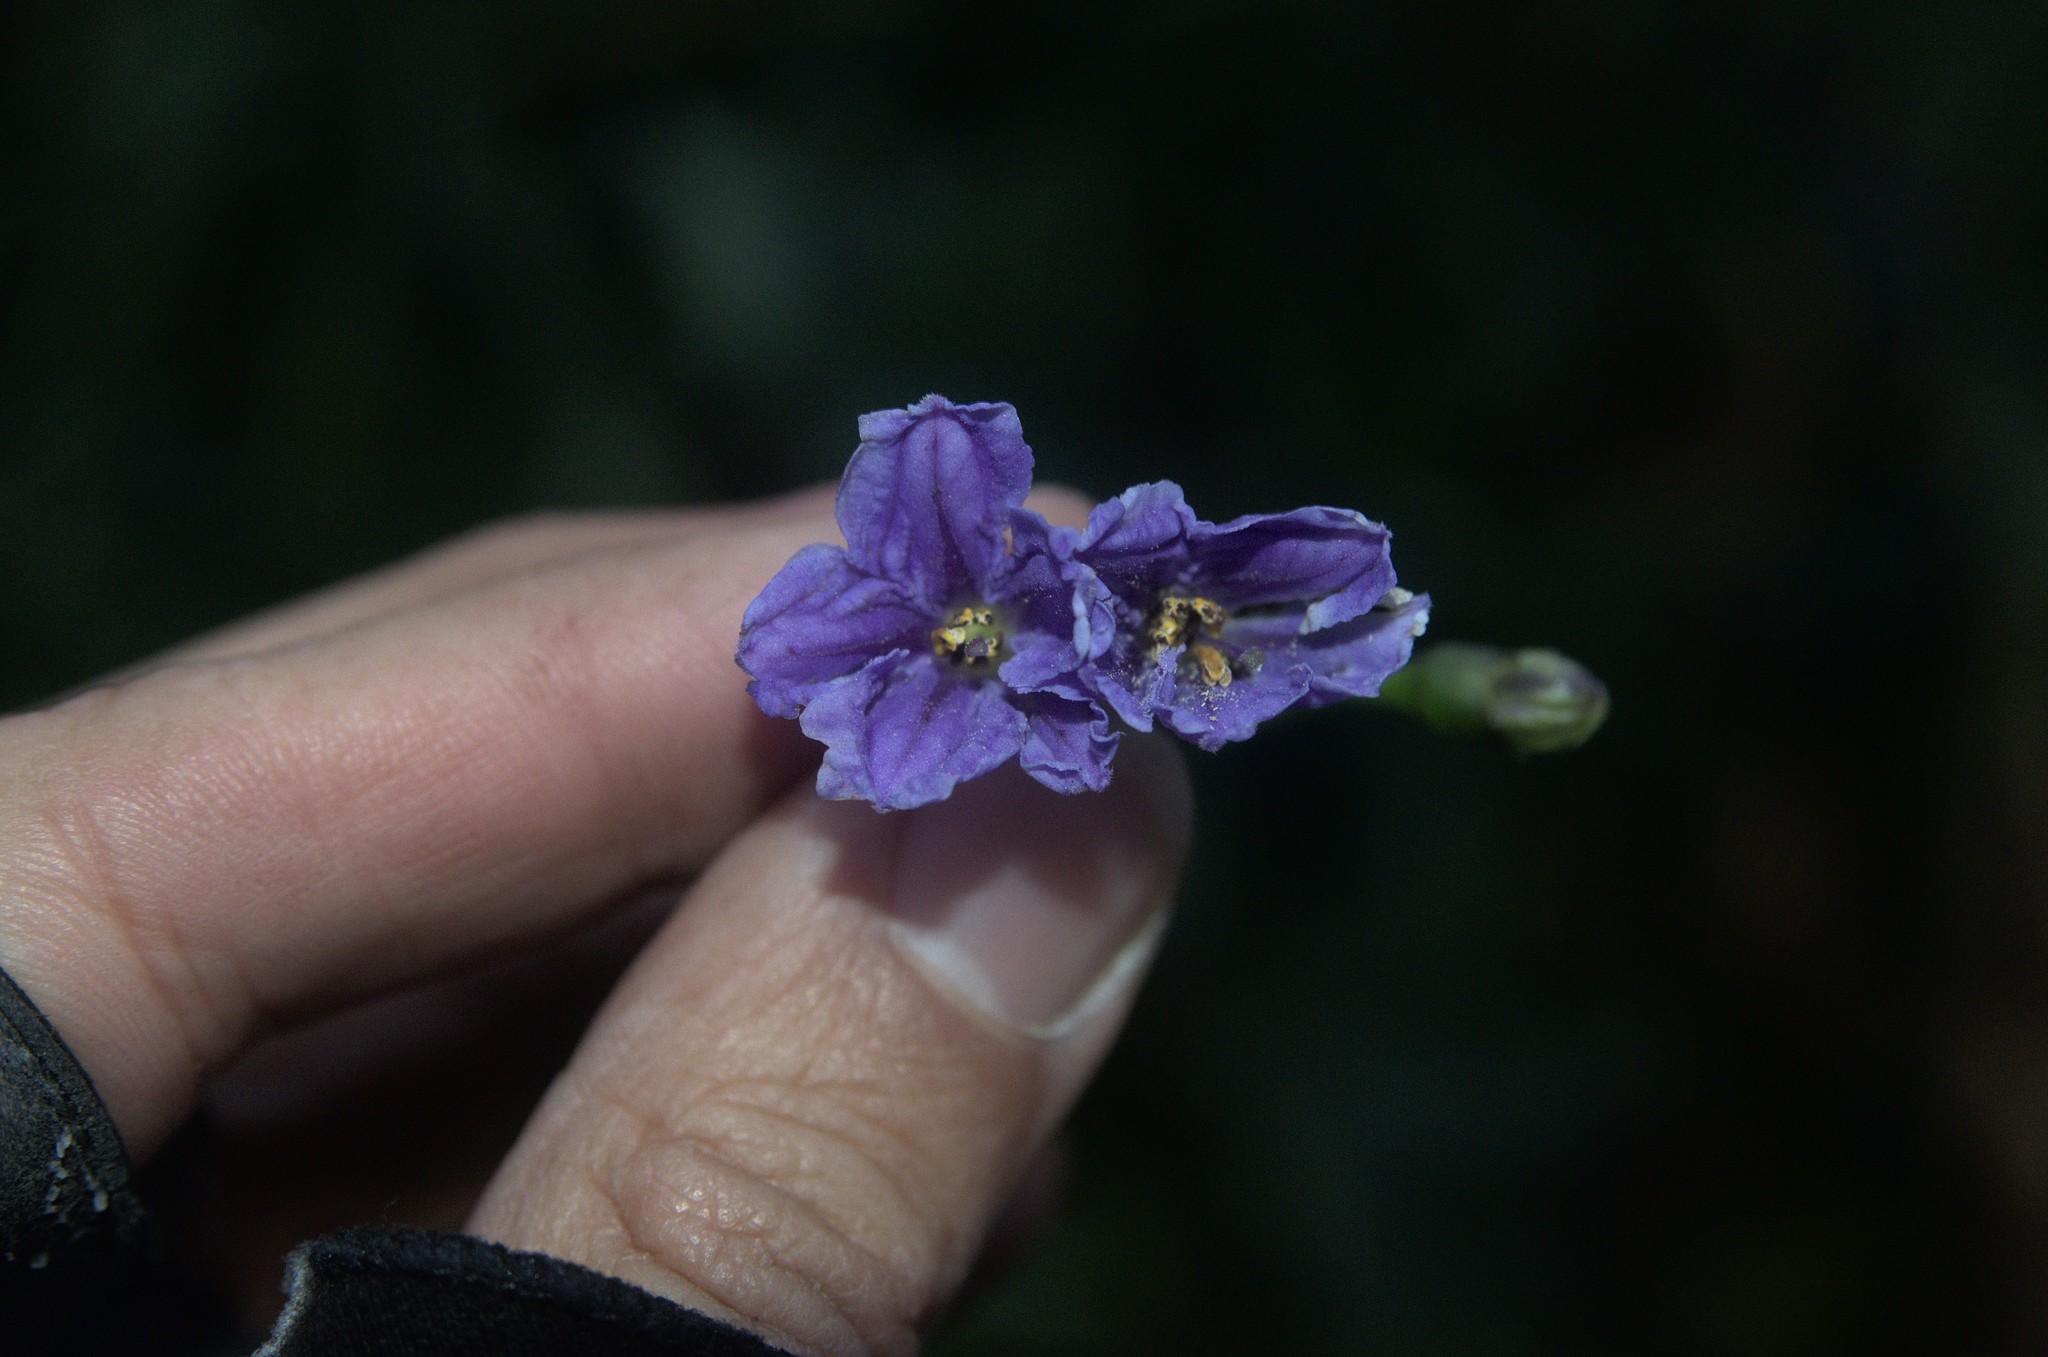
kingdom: Plantae
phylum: Tracheophyta
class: Magnoliopsida
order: Solanales
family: Solanaceae
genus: Solanum
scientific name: Solanum laciniatum
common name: Kangaroo-apple
